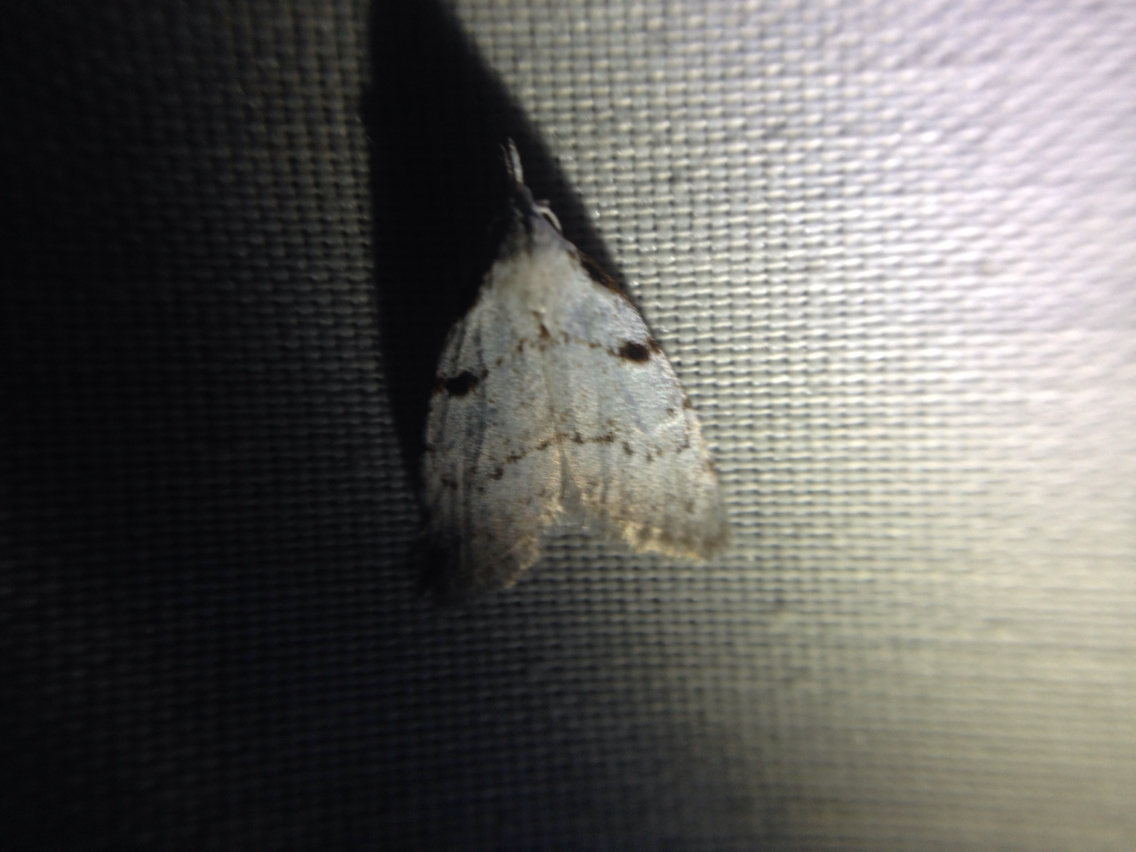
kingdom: Animalia
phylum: Arthropoda
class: Insecta
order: Lepidoptera
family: Nolidae
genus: Nola
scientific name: Nola minna
